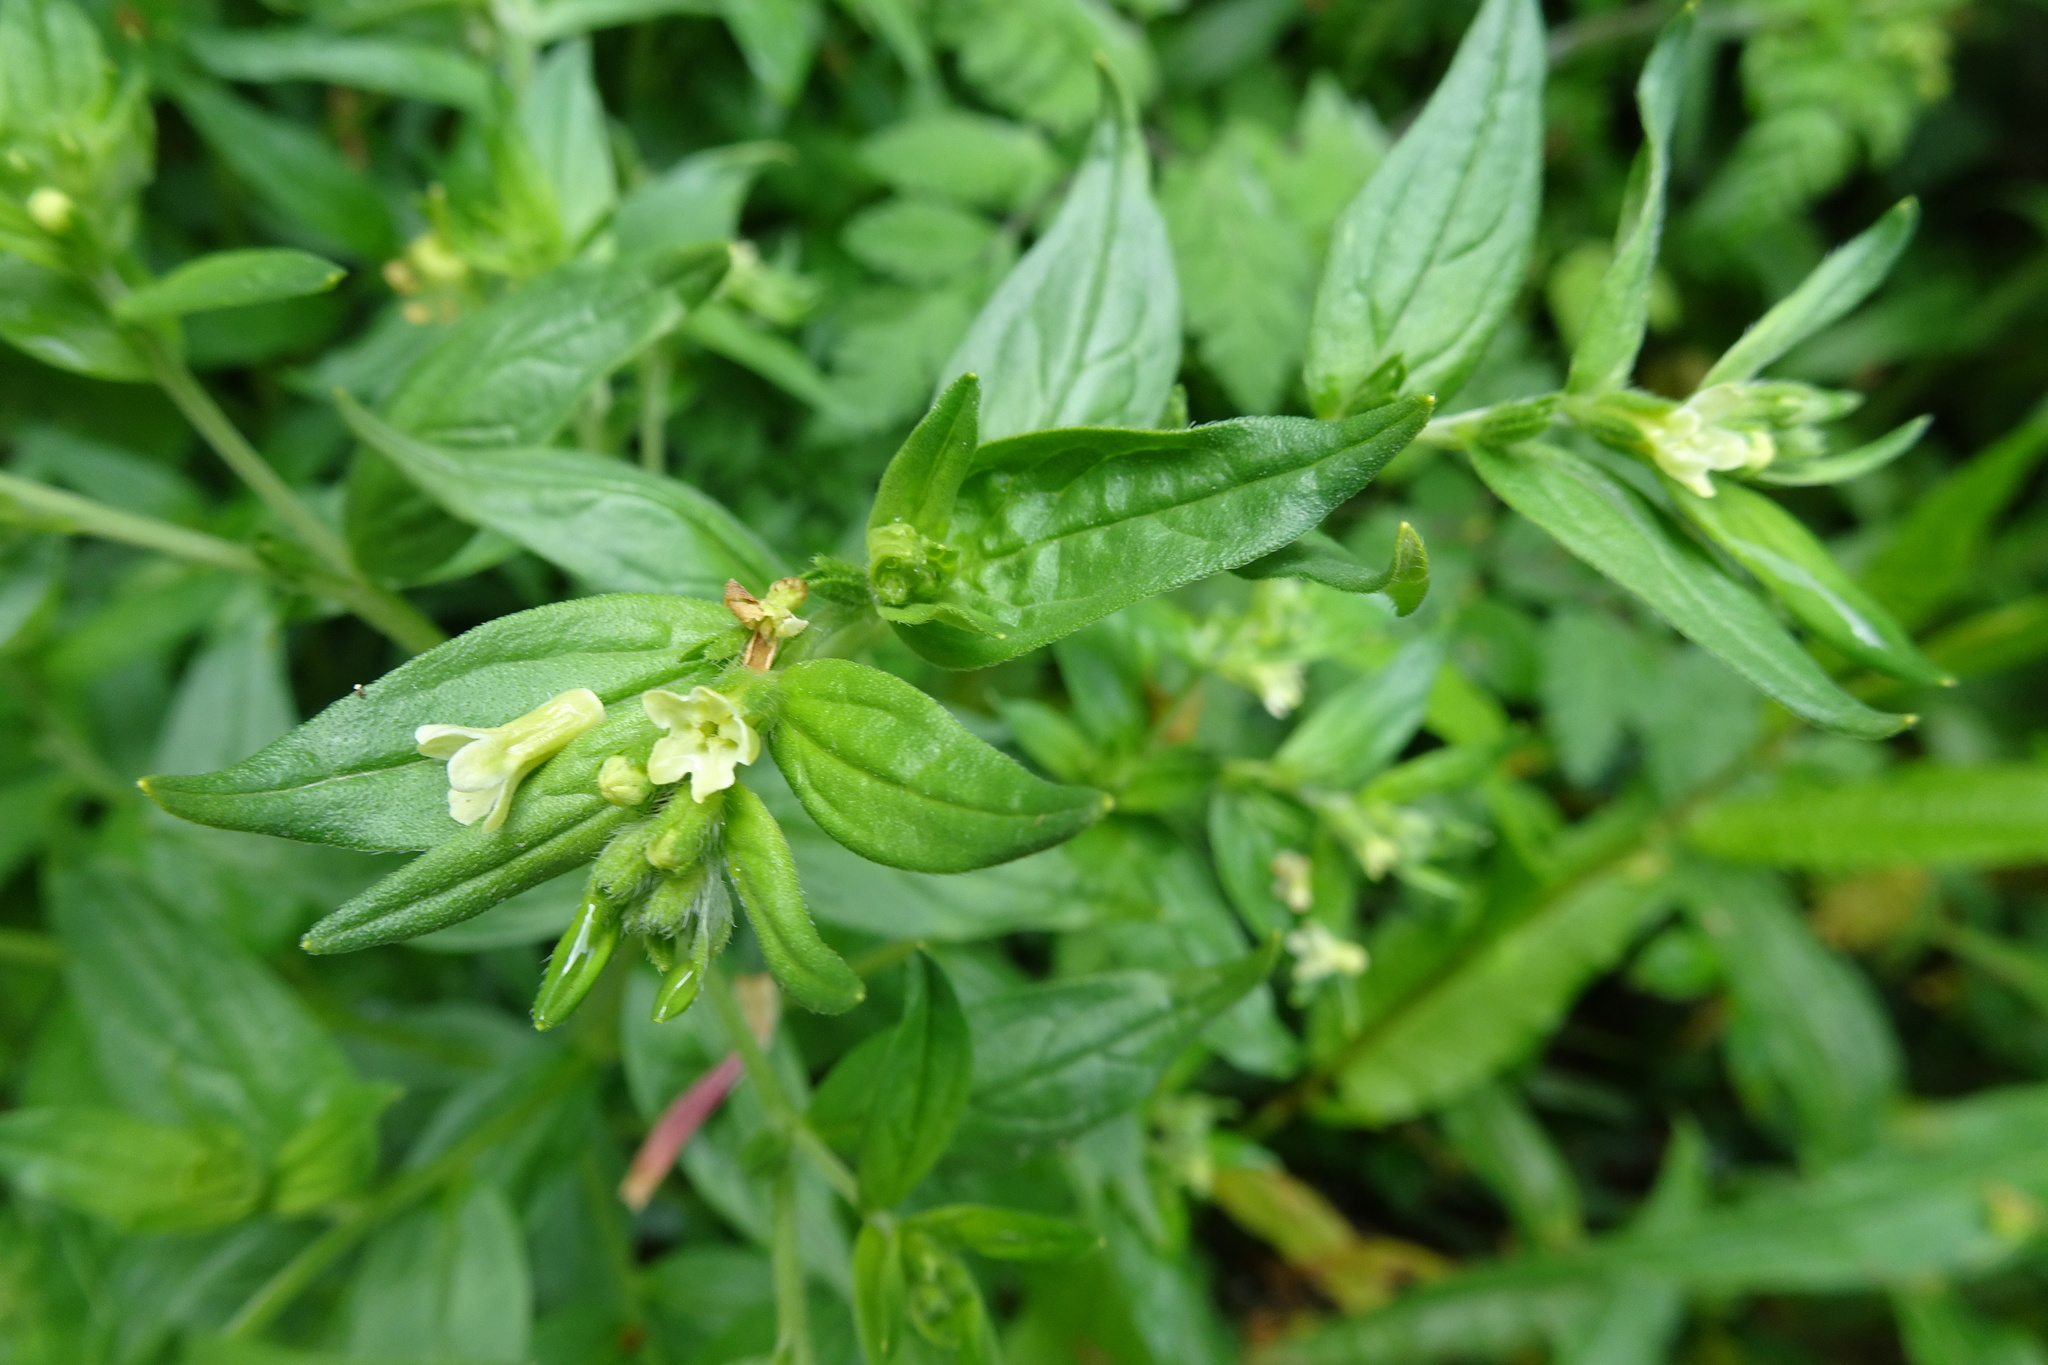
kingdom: Plantae
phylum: Tracheophyta
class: Magnoliopsida
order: Boraginales
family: Boraginaceae
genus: Lithospermum
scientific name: Lithospermum officinale
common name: Common gromwell
